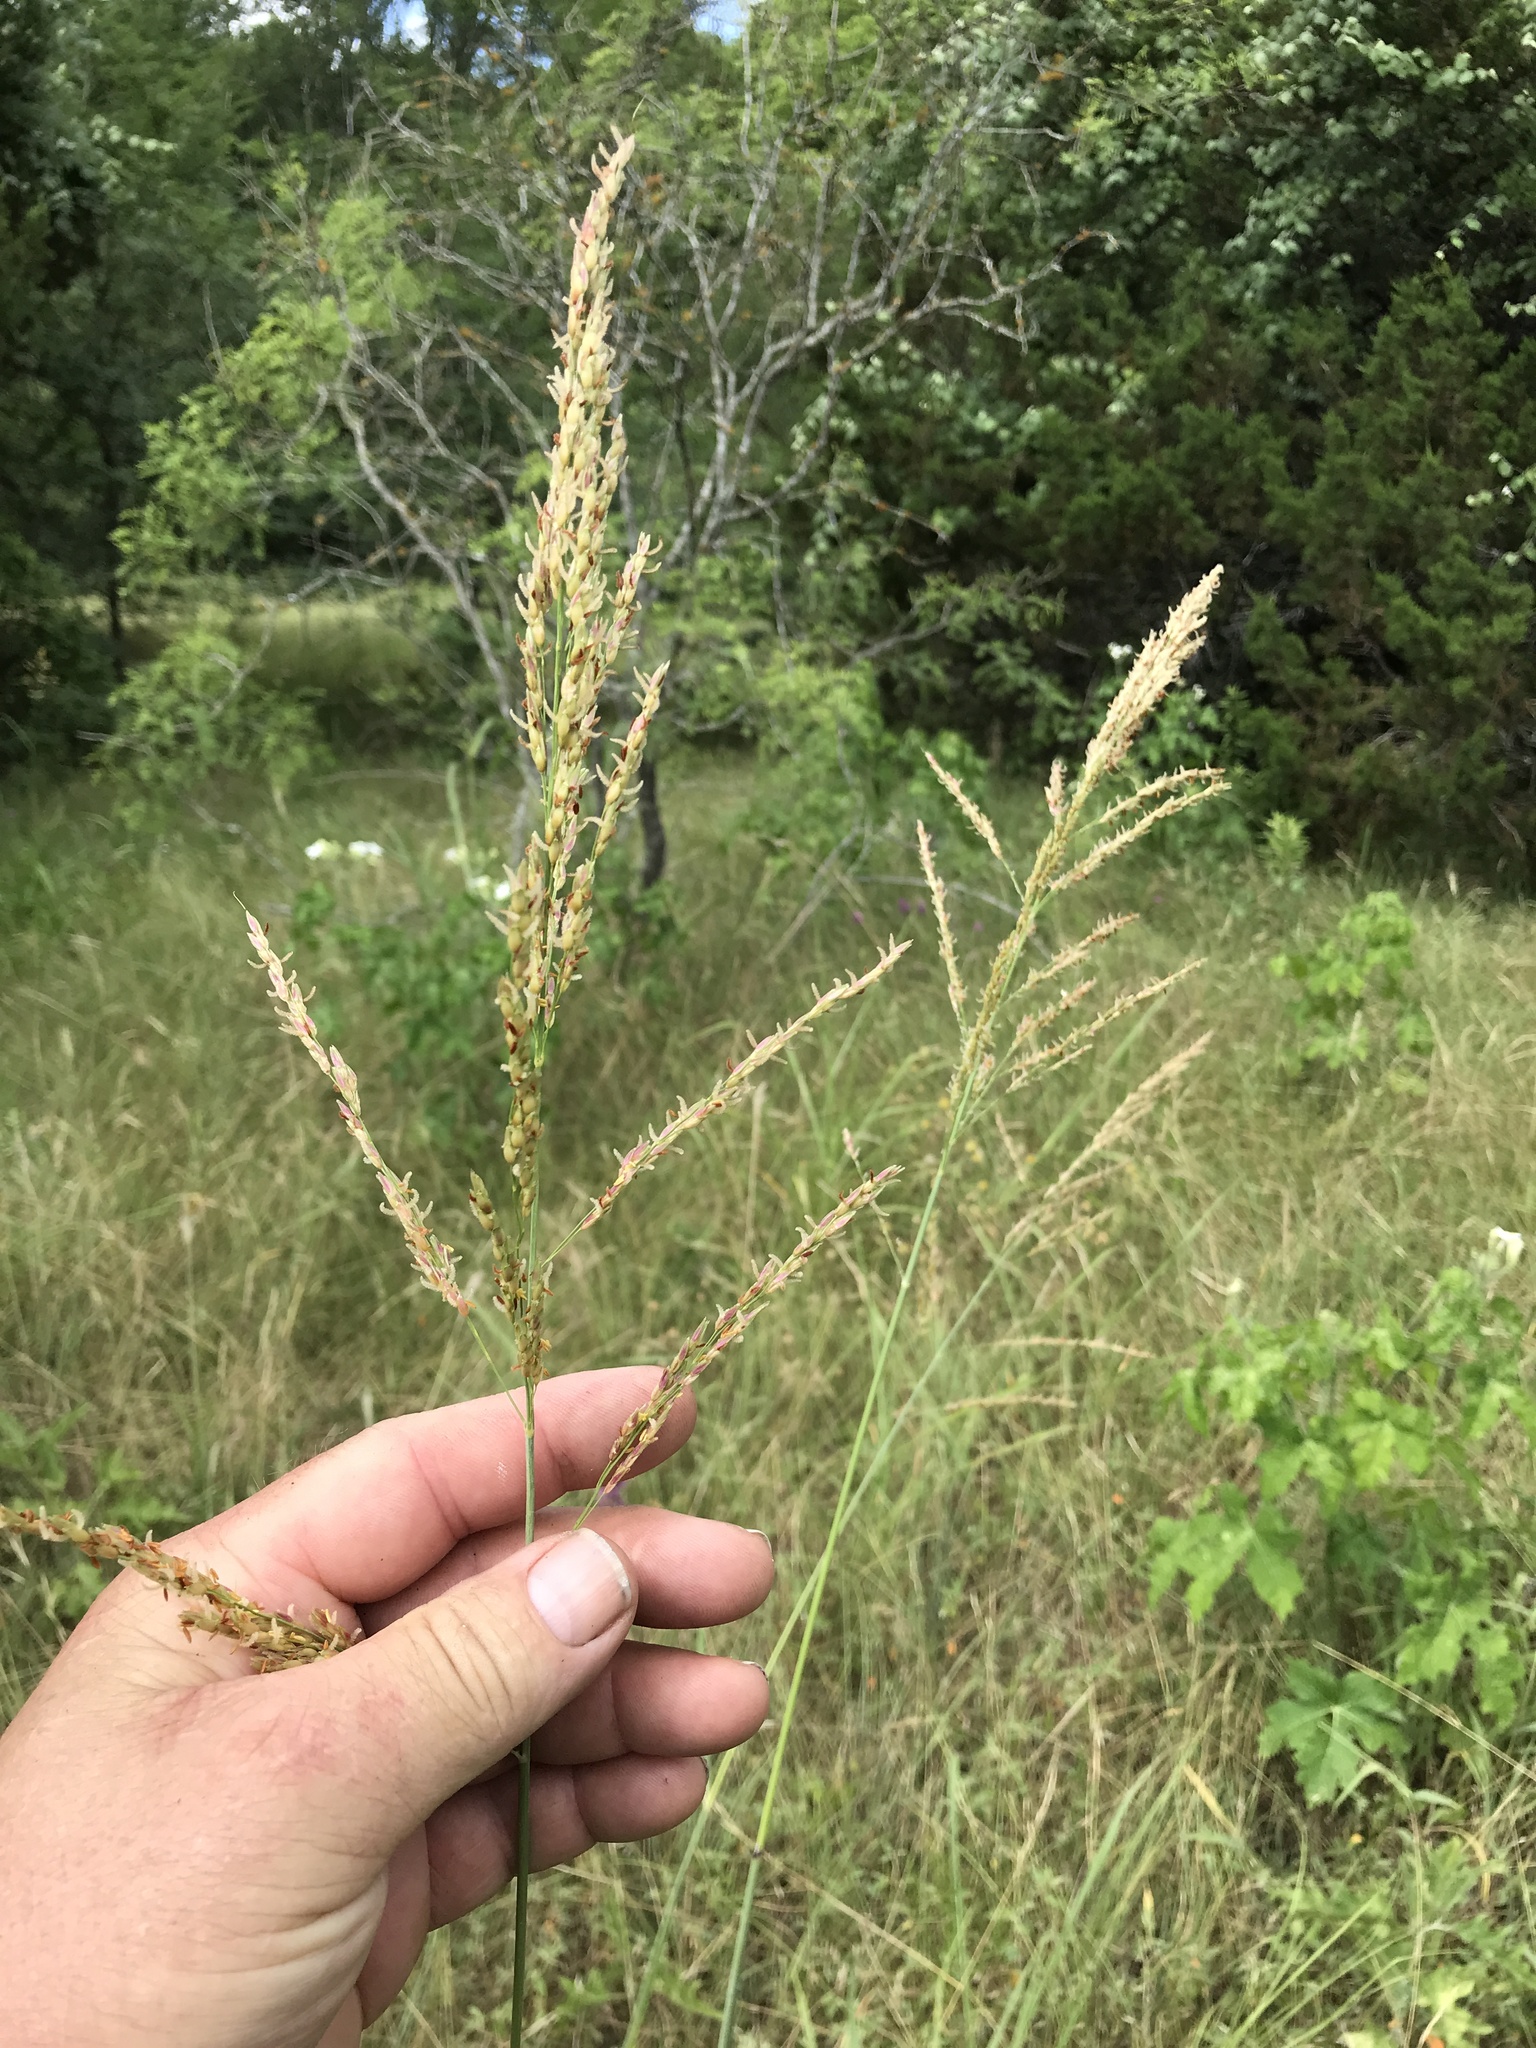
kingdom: Plantae
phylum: Tracheophyta
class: Liliopsida
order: Poales
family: Poaceae
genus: Sorghum
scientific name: Sorghum halepense
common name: Johnson-grass
